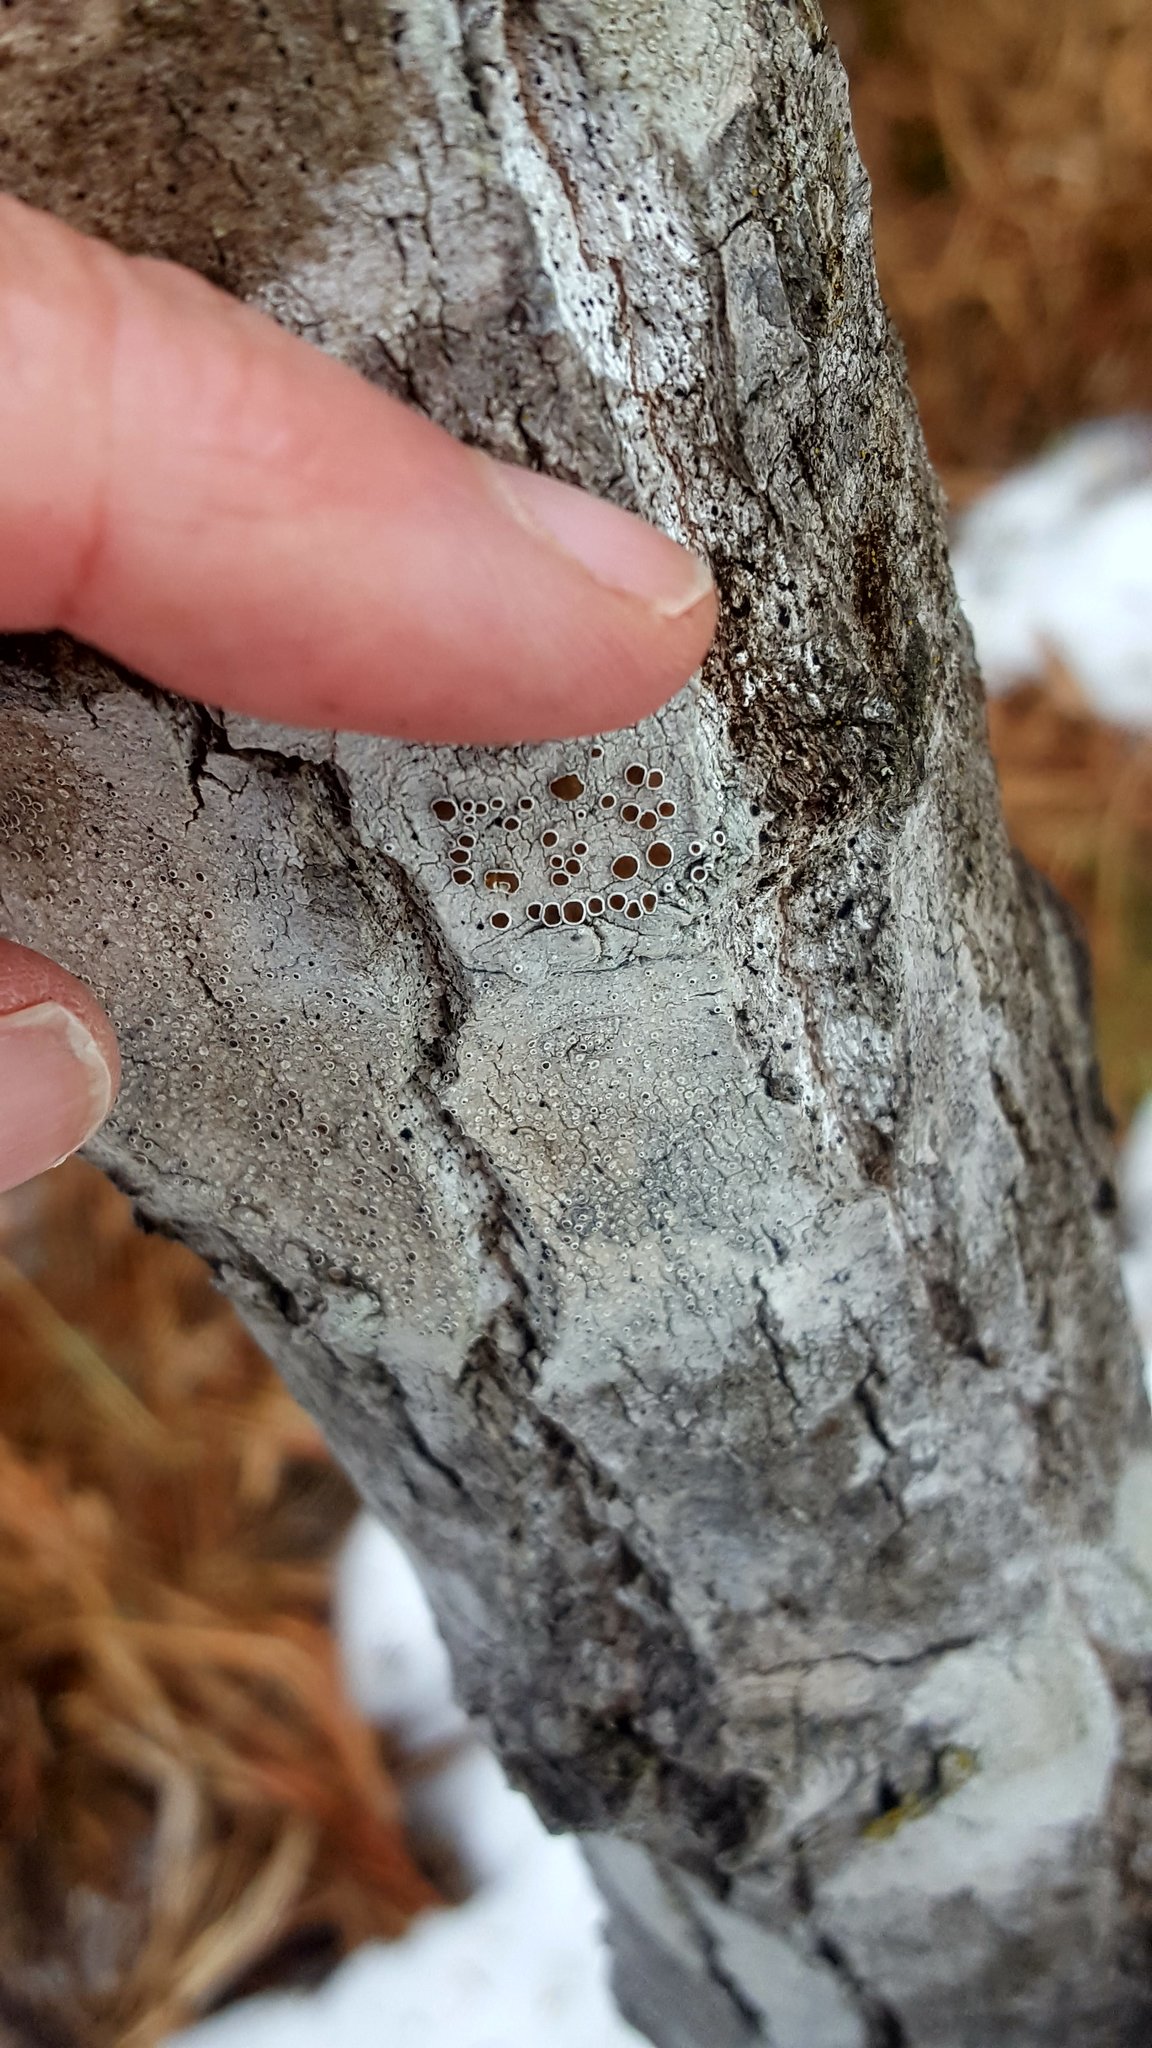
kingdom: Fungi
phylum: Ascomycota
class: Lecanoromycetes
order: Lecanorales
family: Lecanoraceae
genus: Lecanora
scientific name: Lecanora albella
